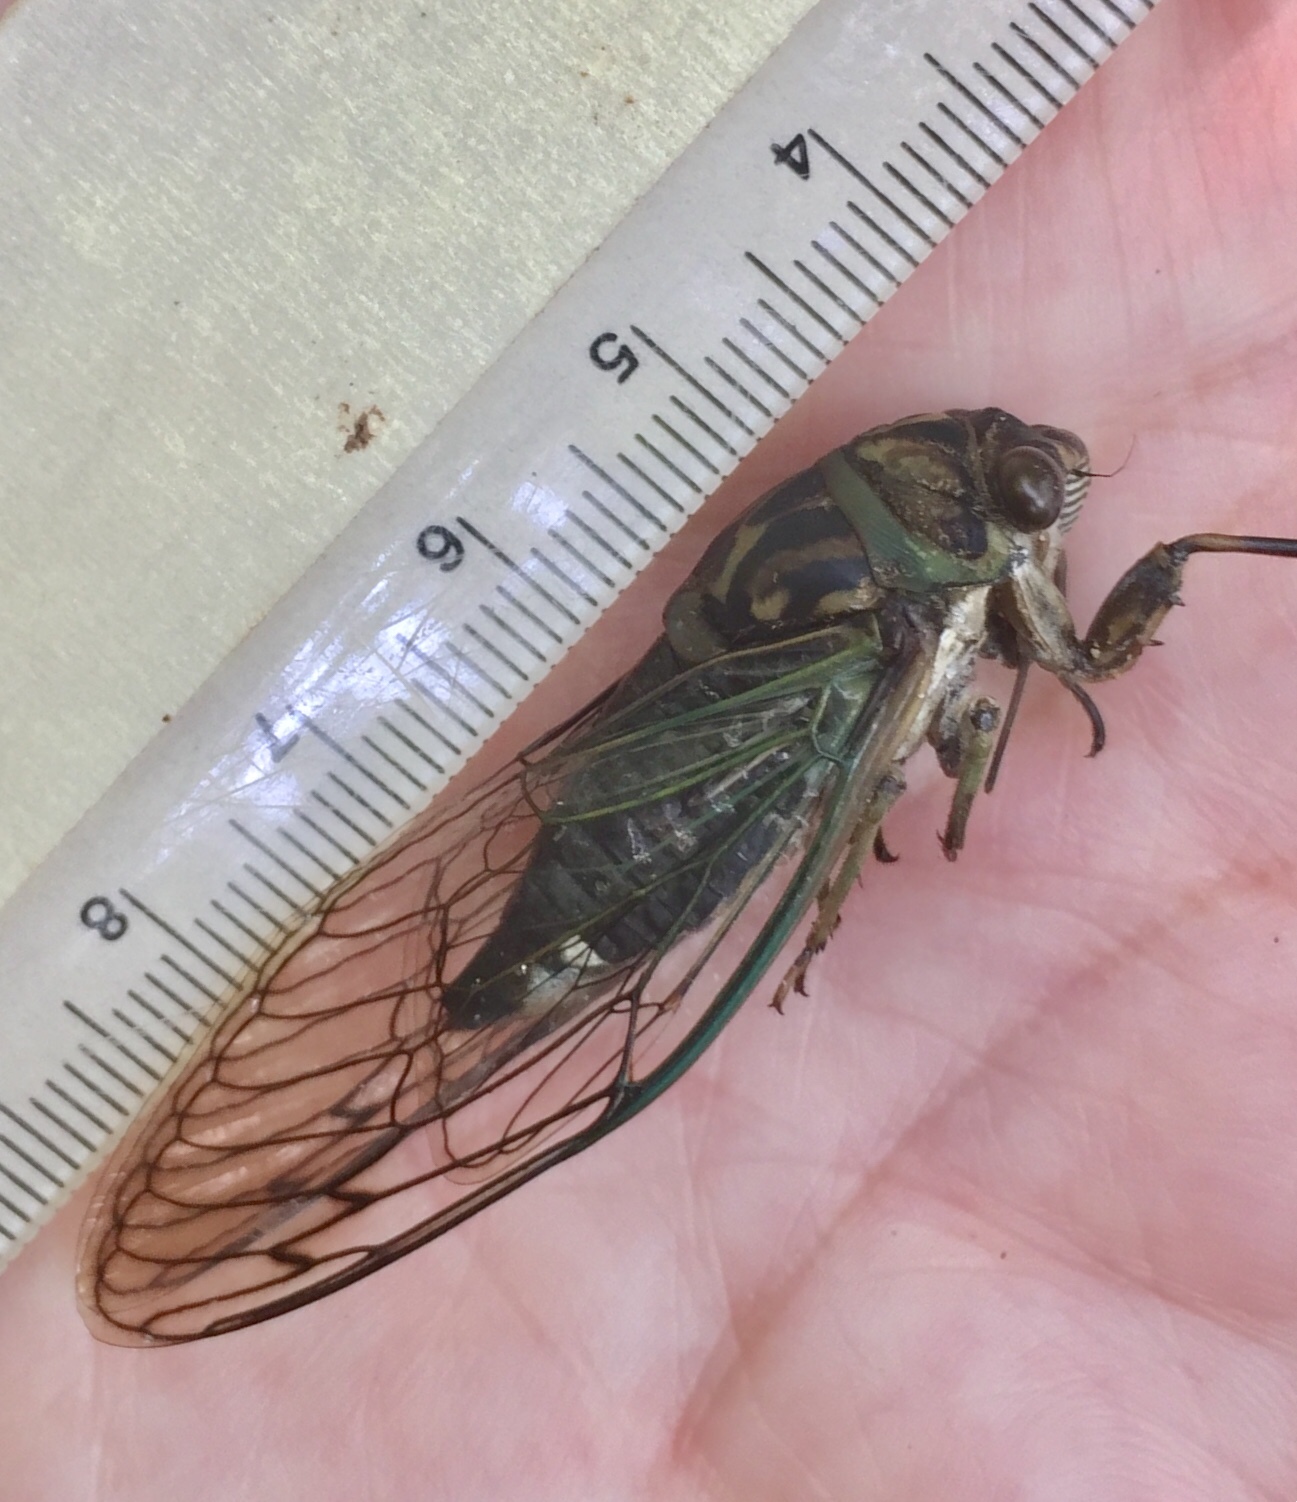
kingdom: Animalia
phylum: Arthropoda
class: Insecta
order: Hemiptera
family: Cicadidae
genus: Neotibicen
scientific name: Neotibicen linnei
